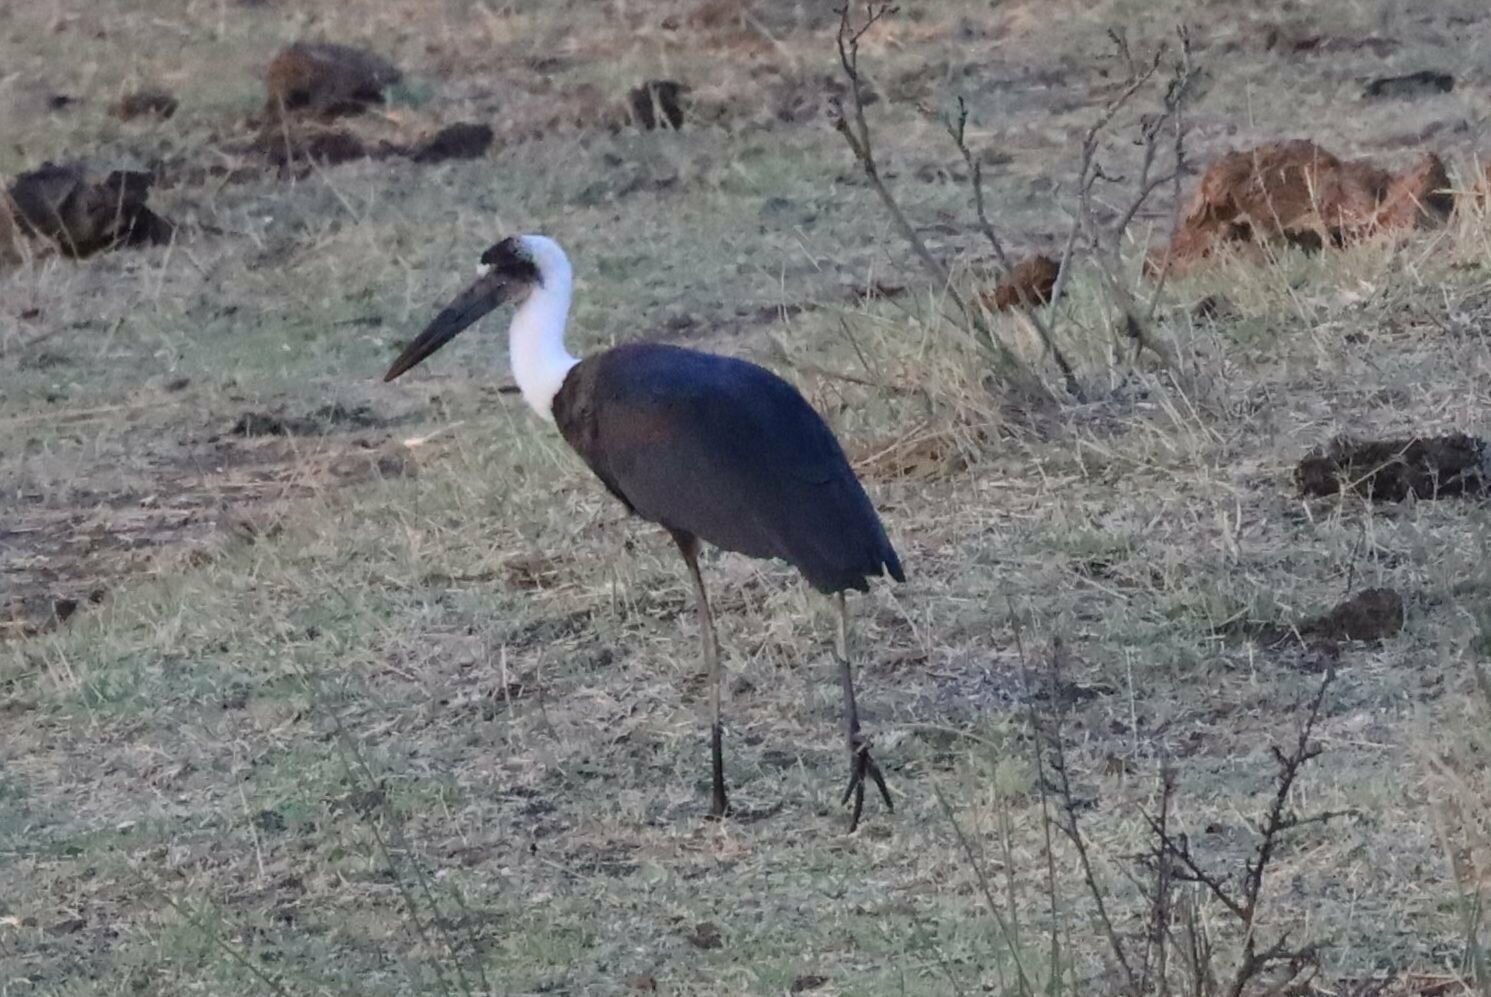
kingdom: Animalia
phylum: Chordata
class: Aves
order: Ciconiiformes
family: Ciconiidae
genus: Ciconia
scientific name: Ciconia microscelis
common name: African woollyneck
